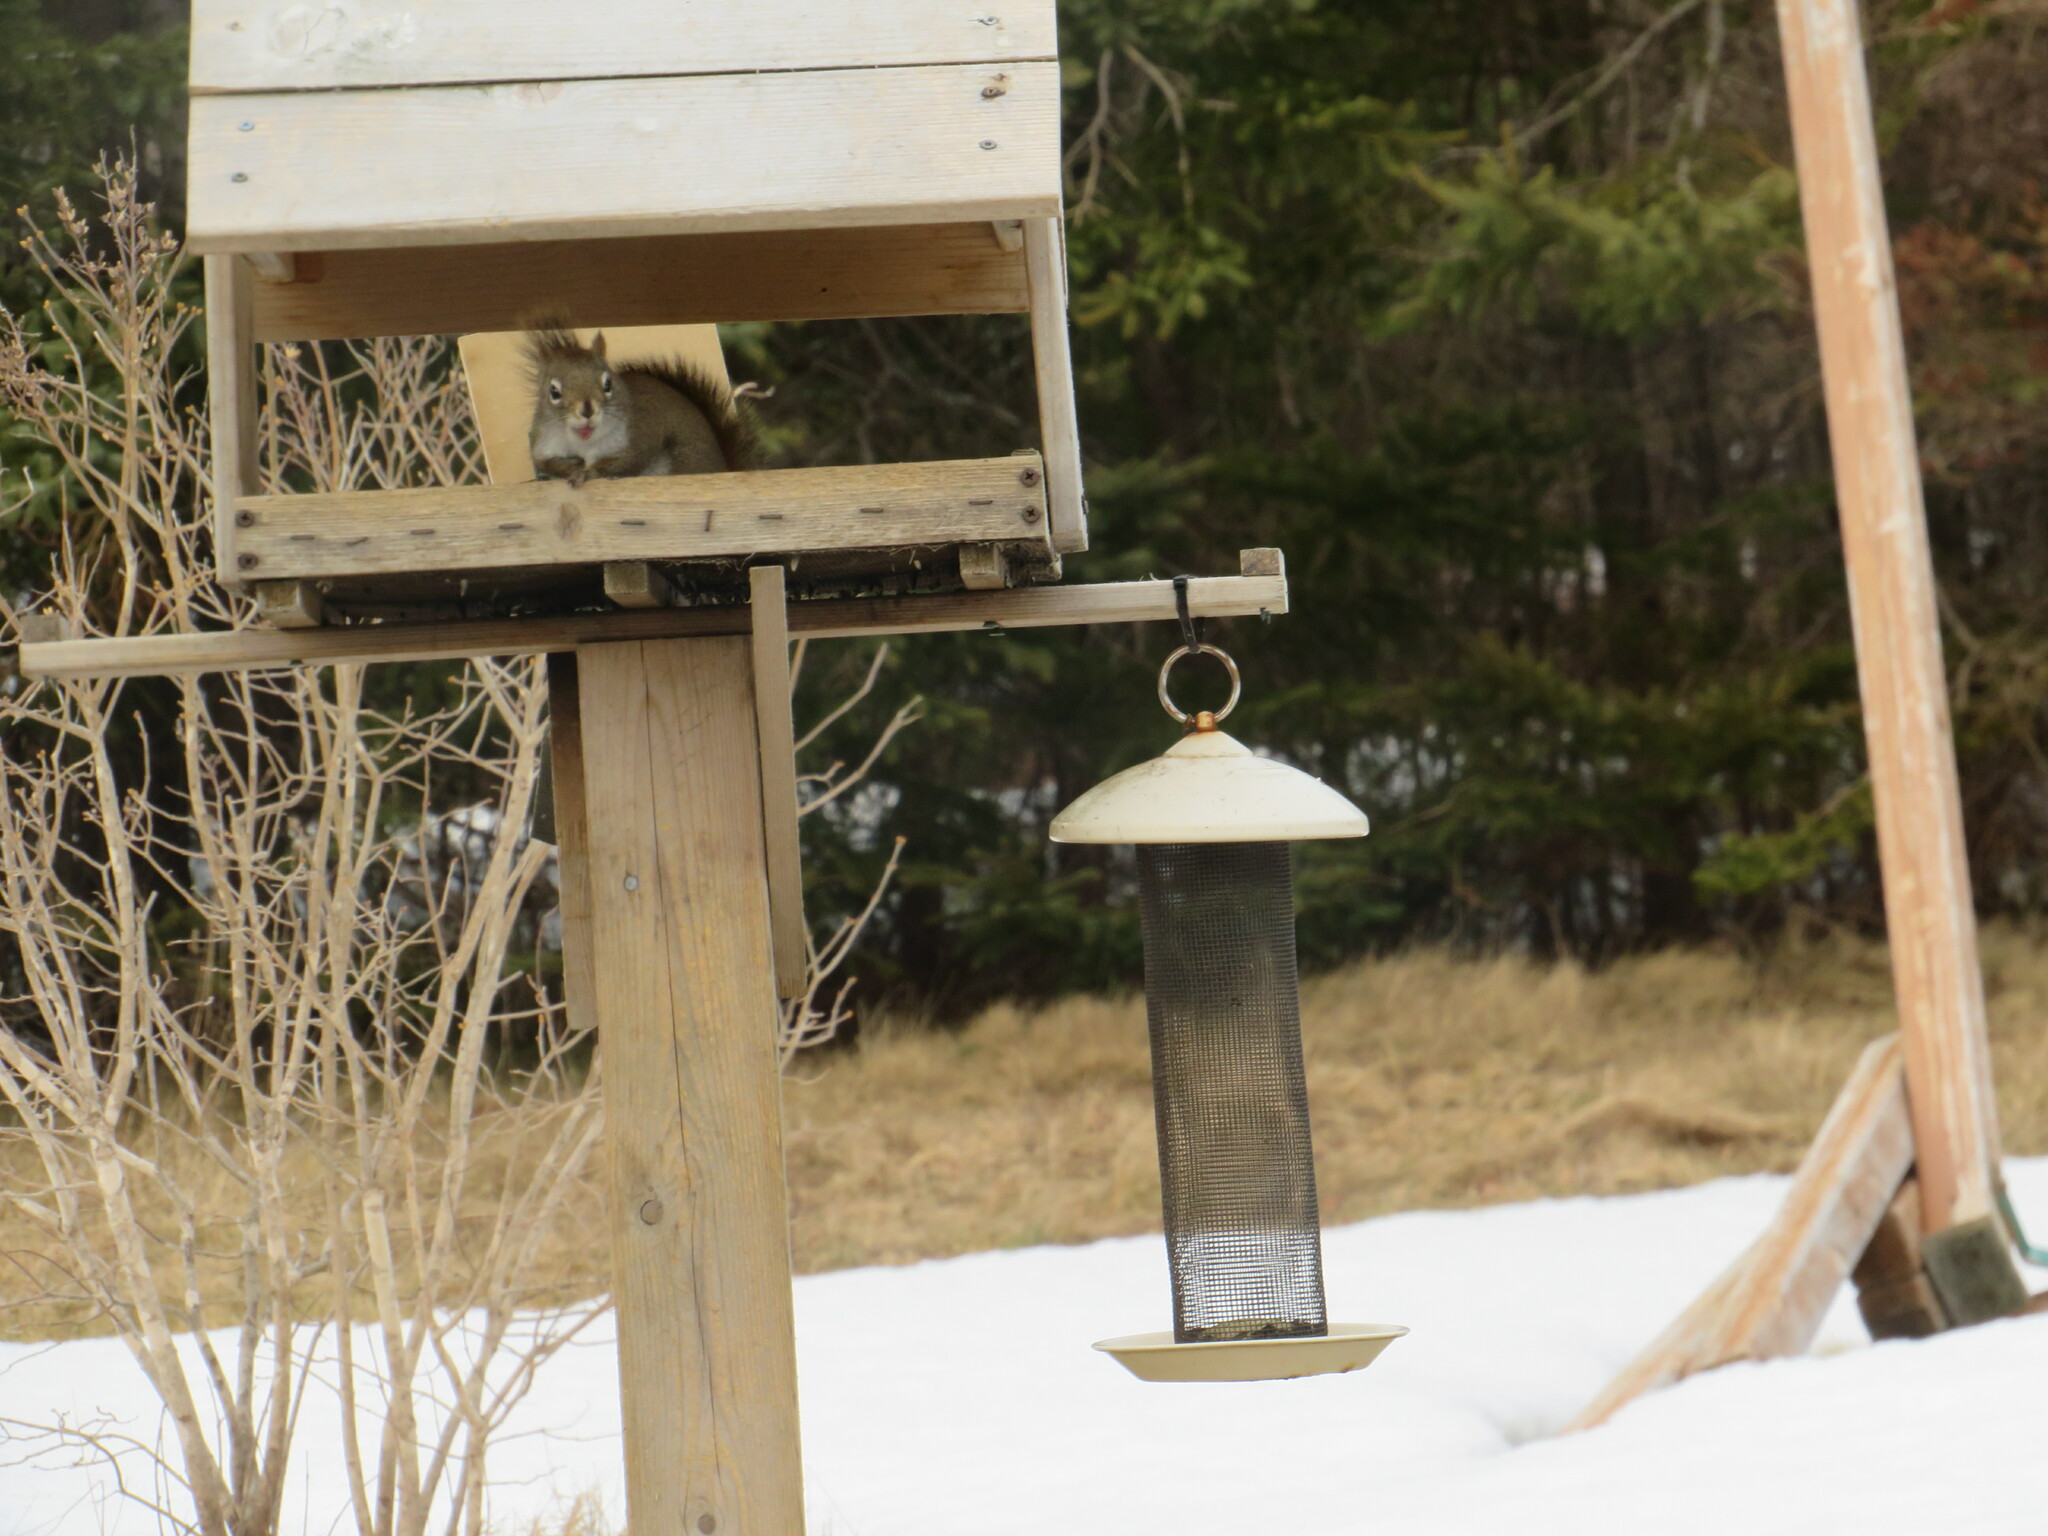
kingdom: Animalia
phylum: Chordata
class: Mammalia
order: Rodentia
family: Sciuridae
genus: Tamiasciurus
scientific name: Tamiasciurus hudsonicus
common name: Red squirrel
